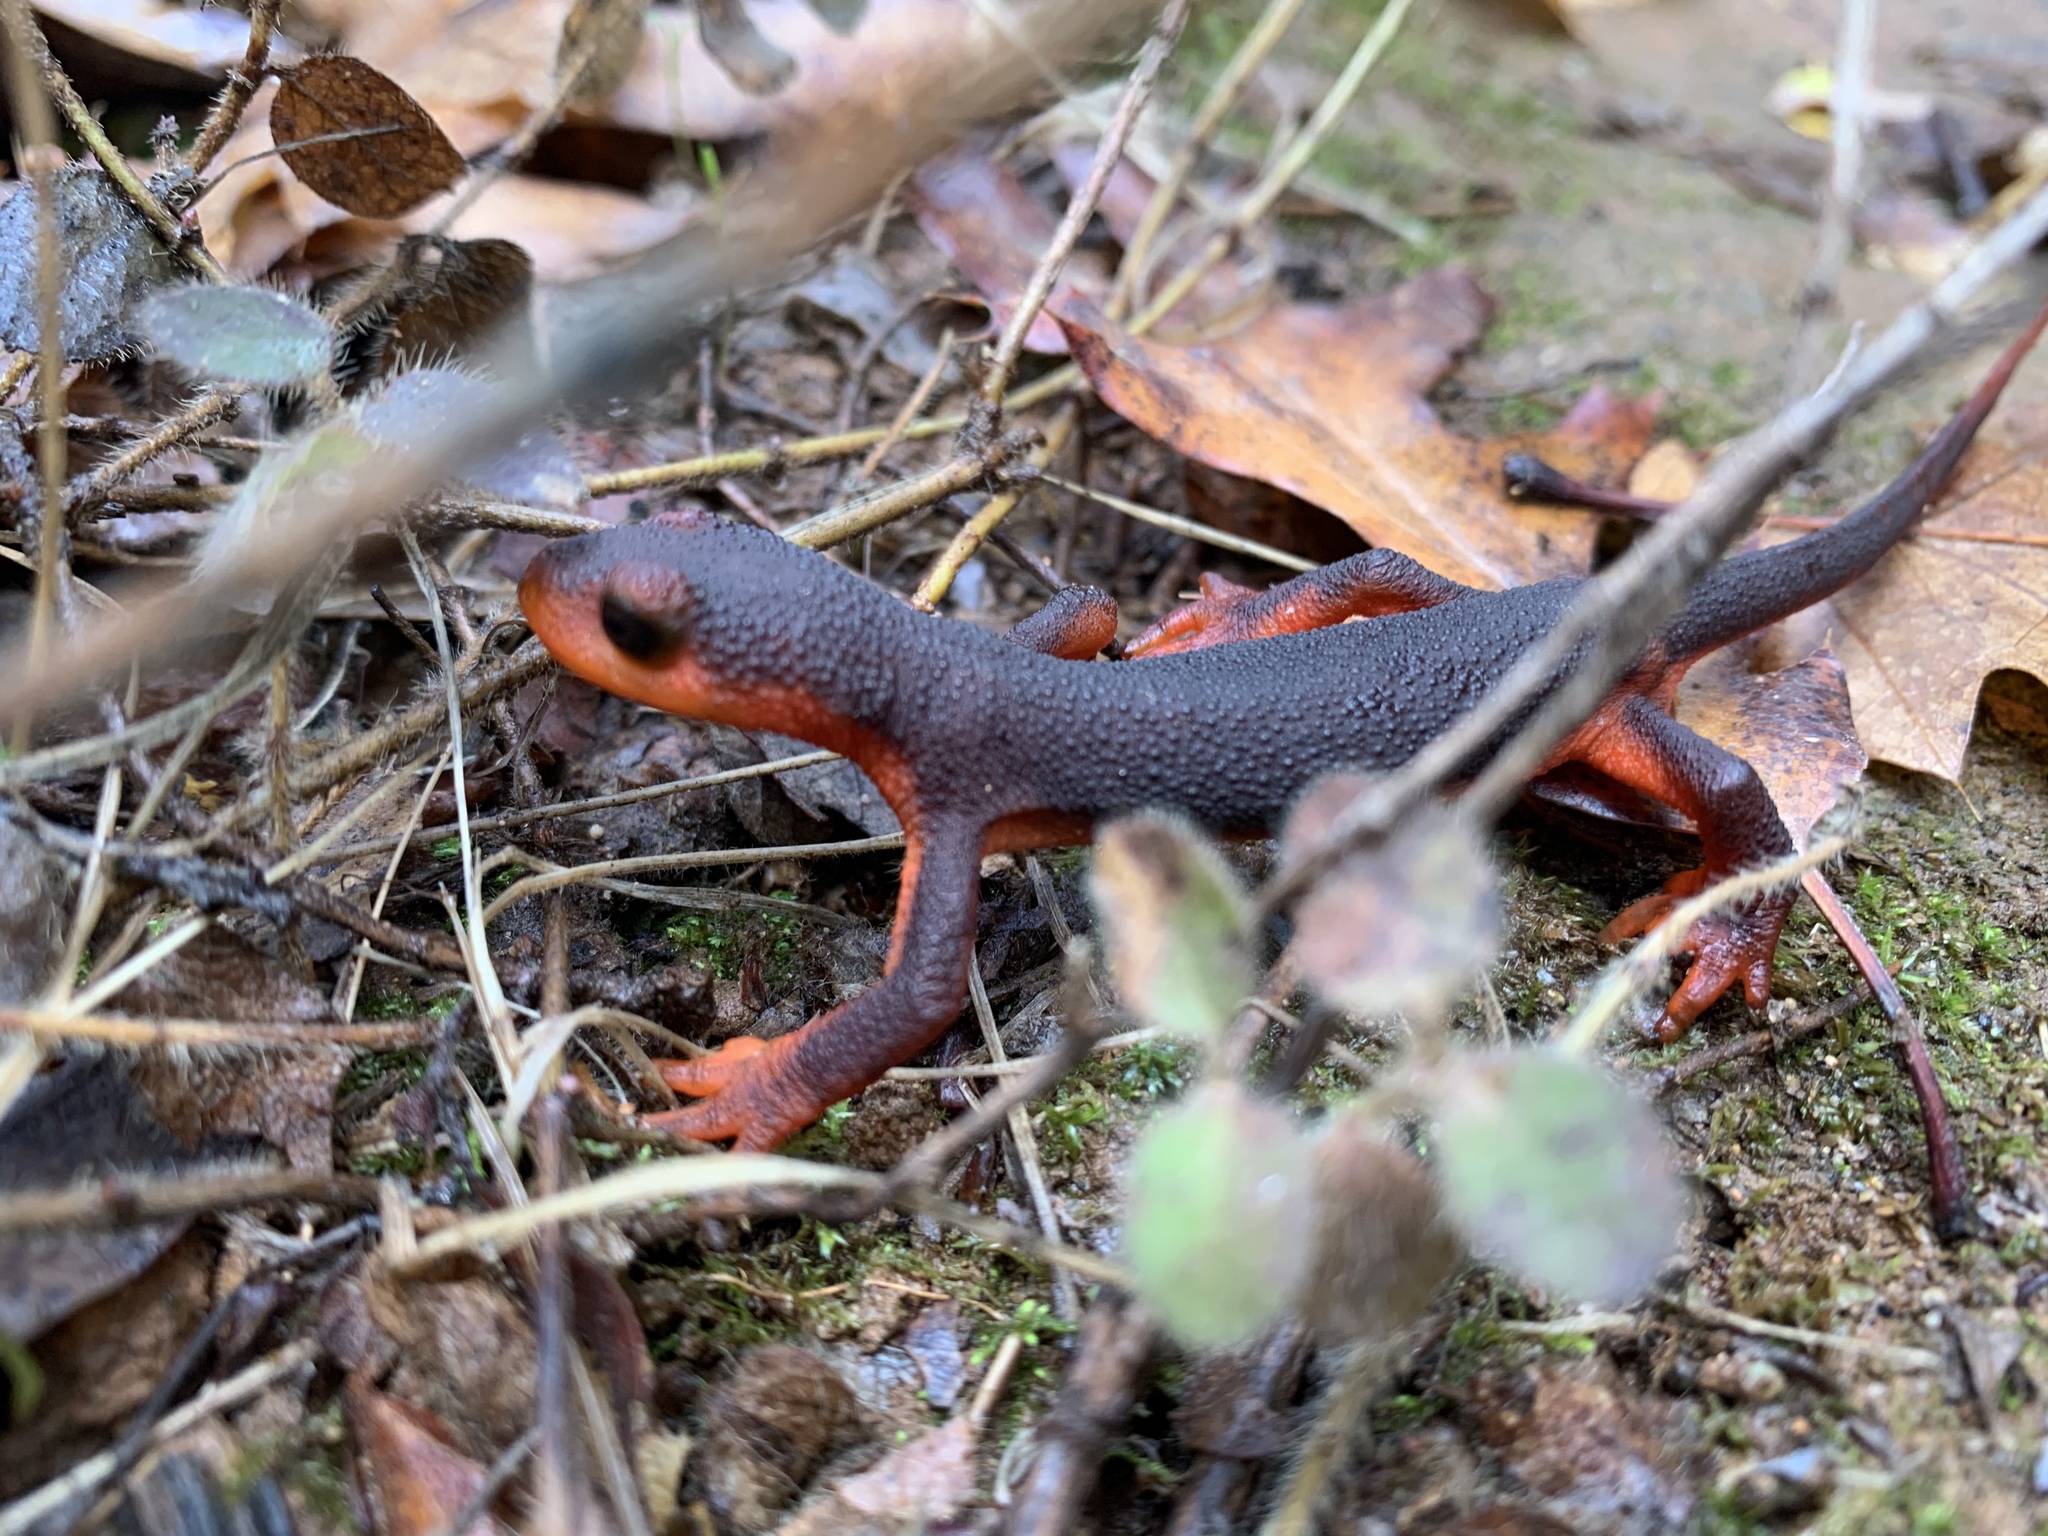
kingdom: Animalia
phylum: Chordata
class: Amphibia
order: Caudata
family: Salamandridae
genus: Taricha
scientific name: Taricha rivularis
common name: Red-bellied newt
